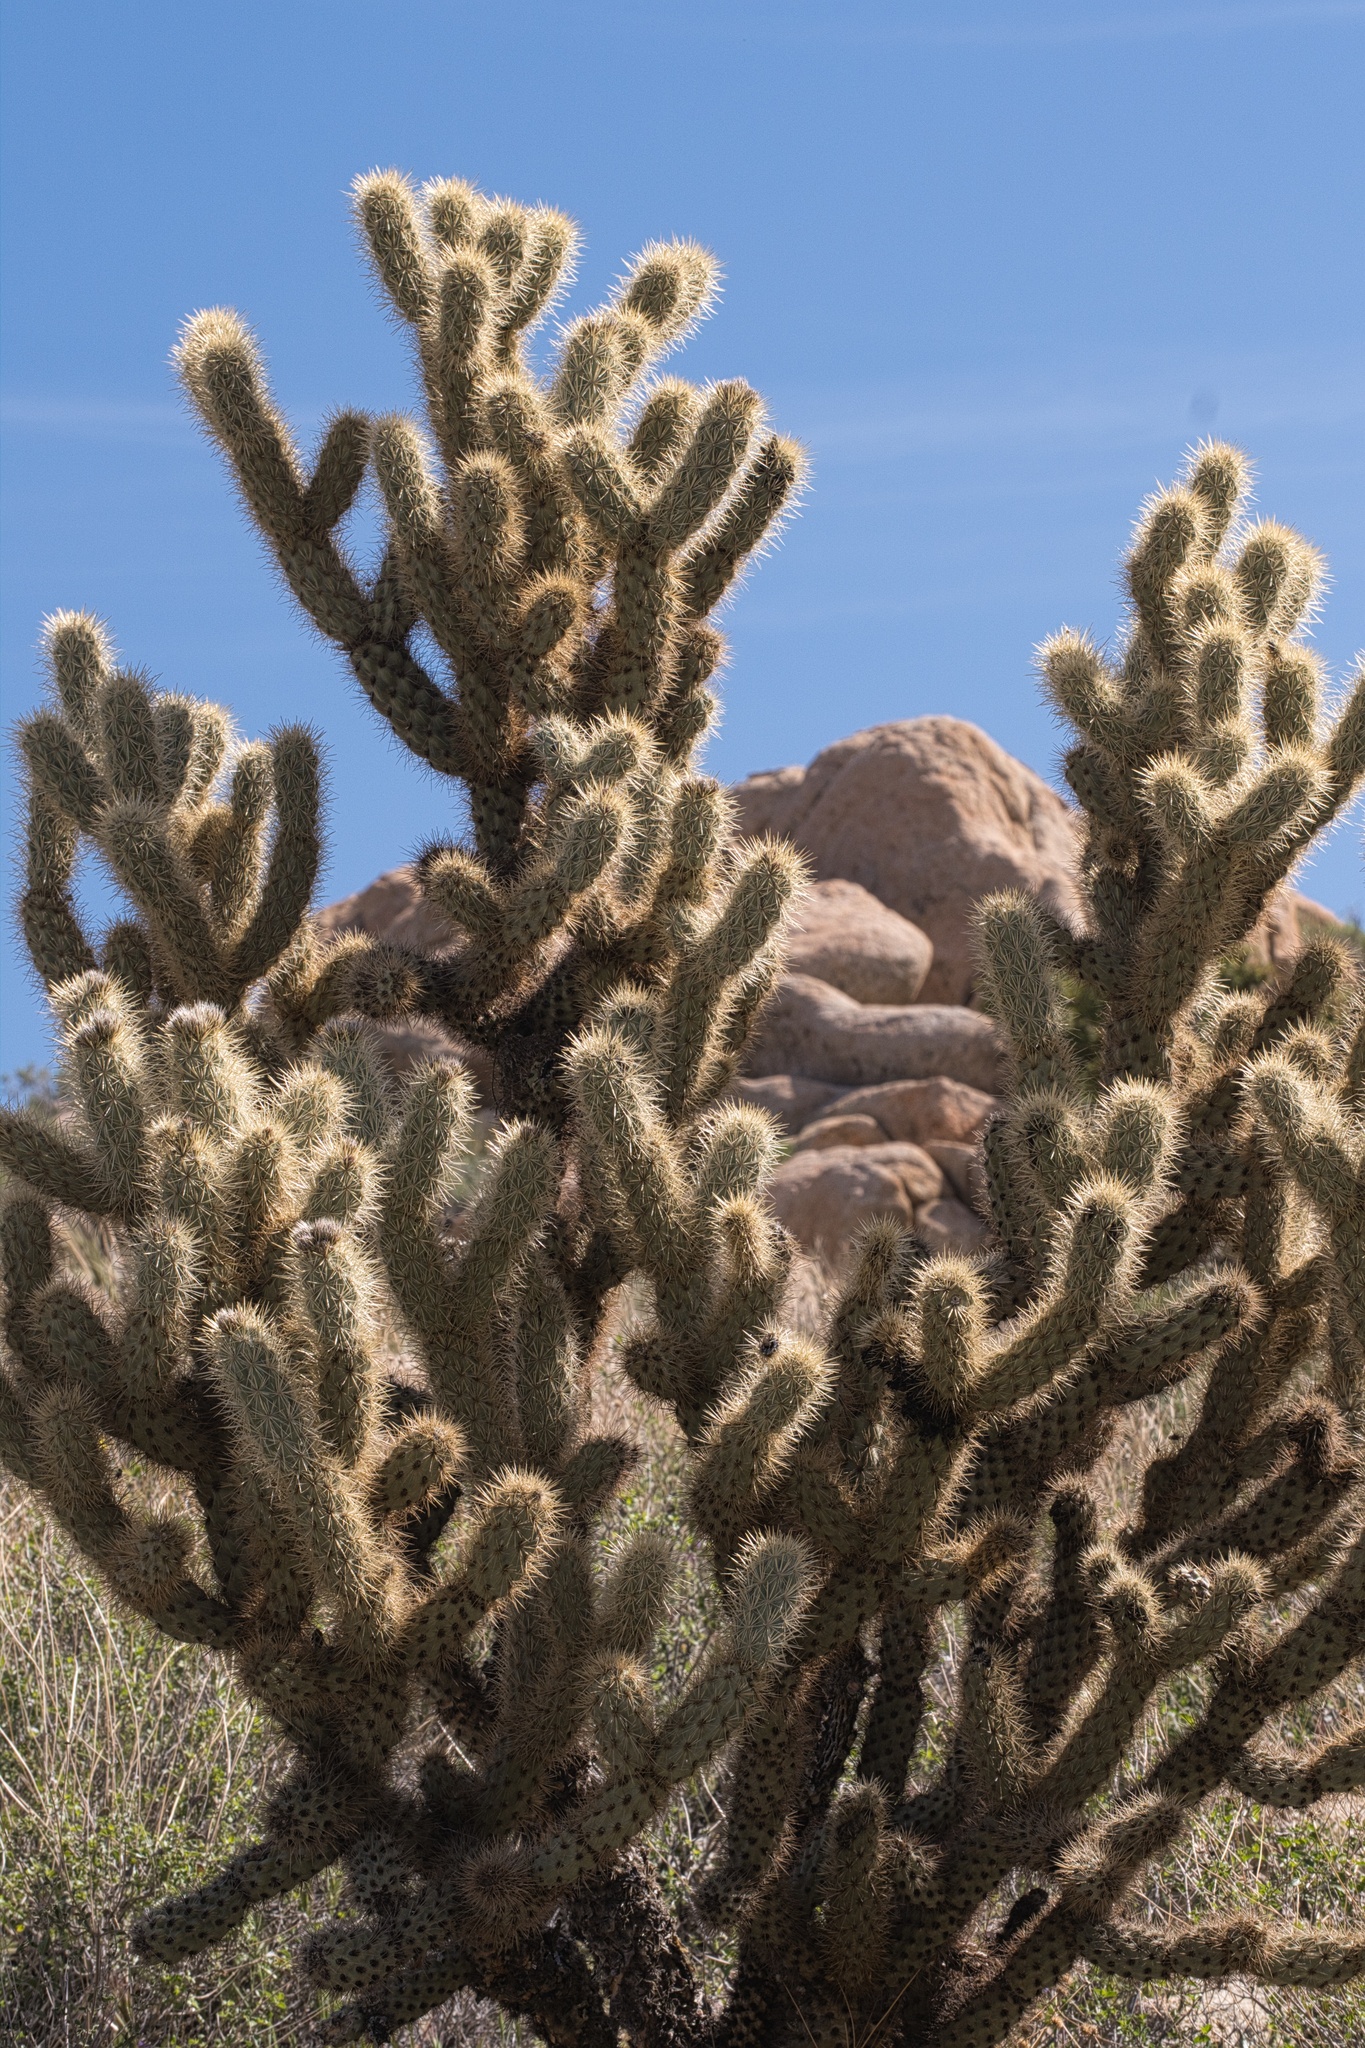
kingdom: Plantae
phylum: Tracheophyta
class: Magnoliopsida
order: Caryophyllales
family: Cactaceae
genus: Cylindropuntia
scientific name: Cylindropuntia wolfii
